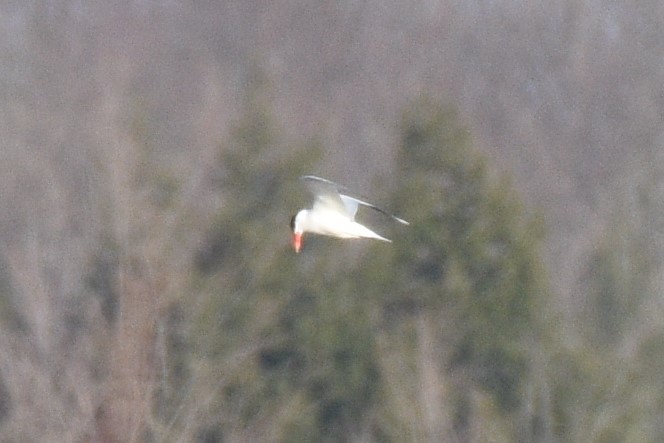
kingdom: Animalia
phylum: Chordata
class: Aves
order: Charadriiformes
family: Laridae
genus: Hydroprogne
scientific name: Hydroprogne caspia
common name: Caspian tern
